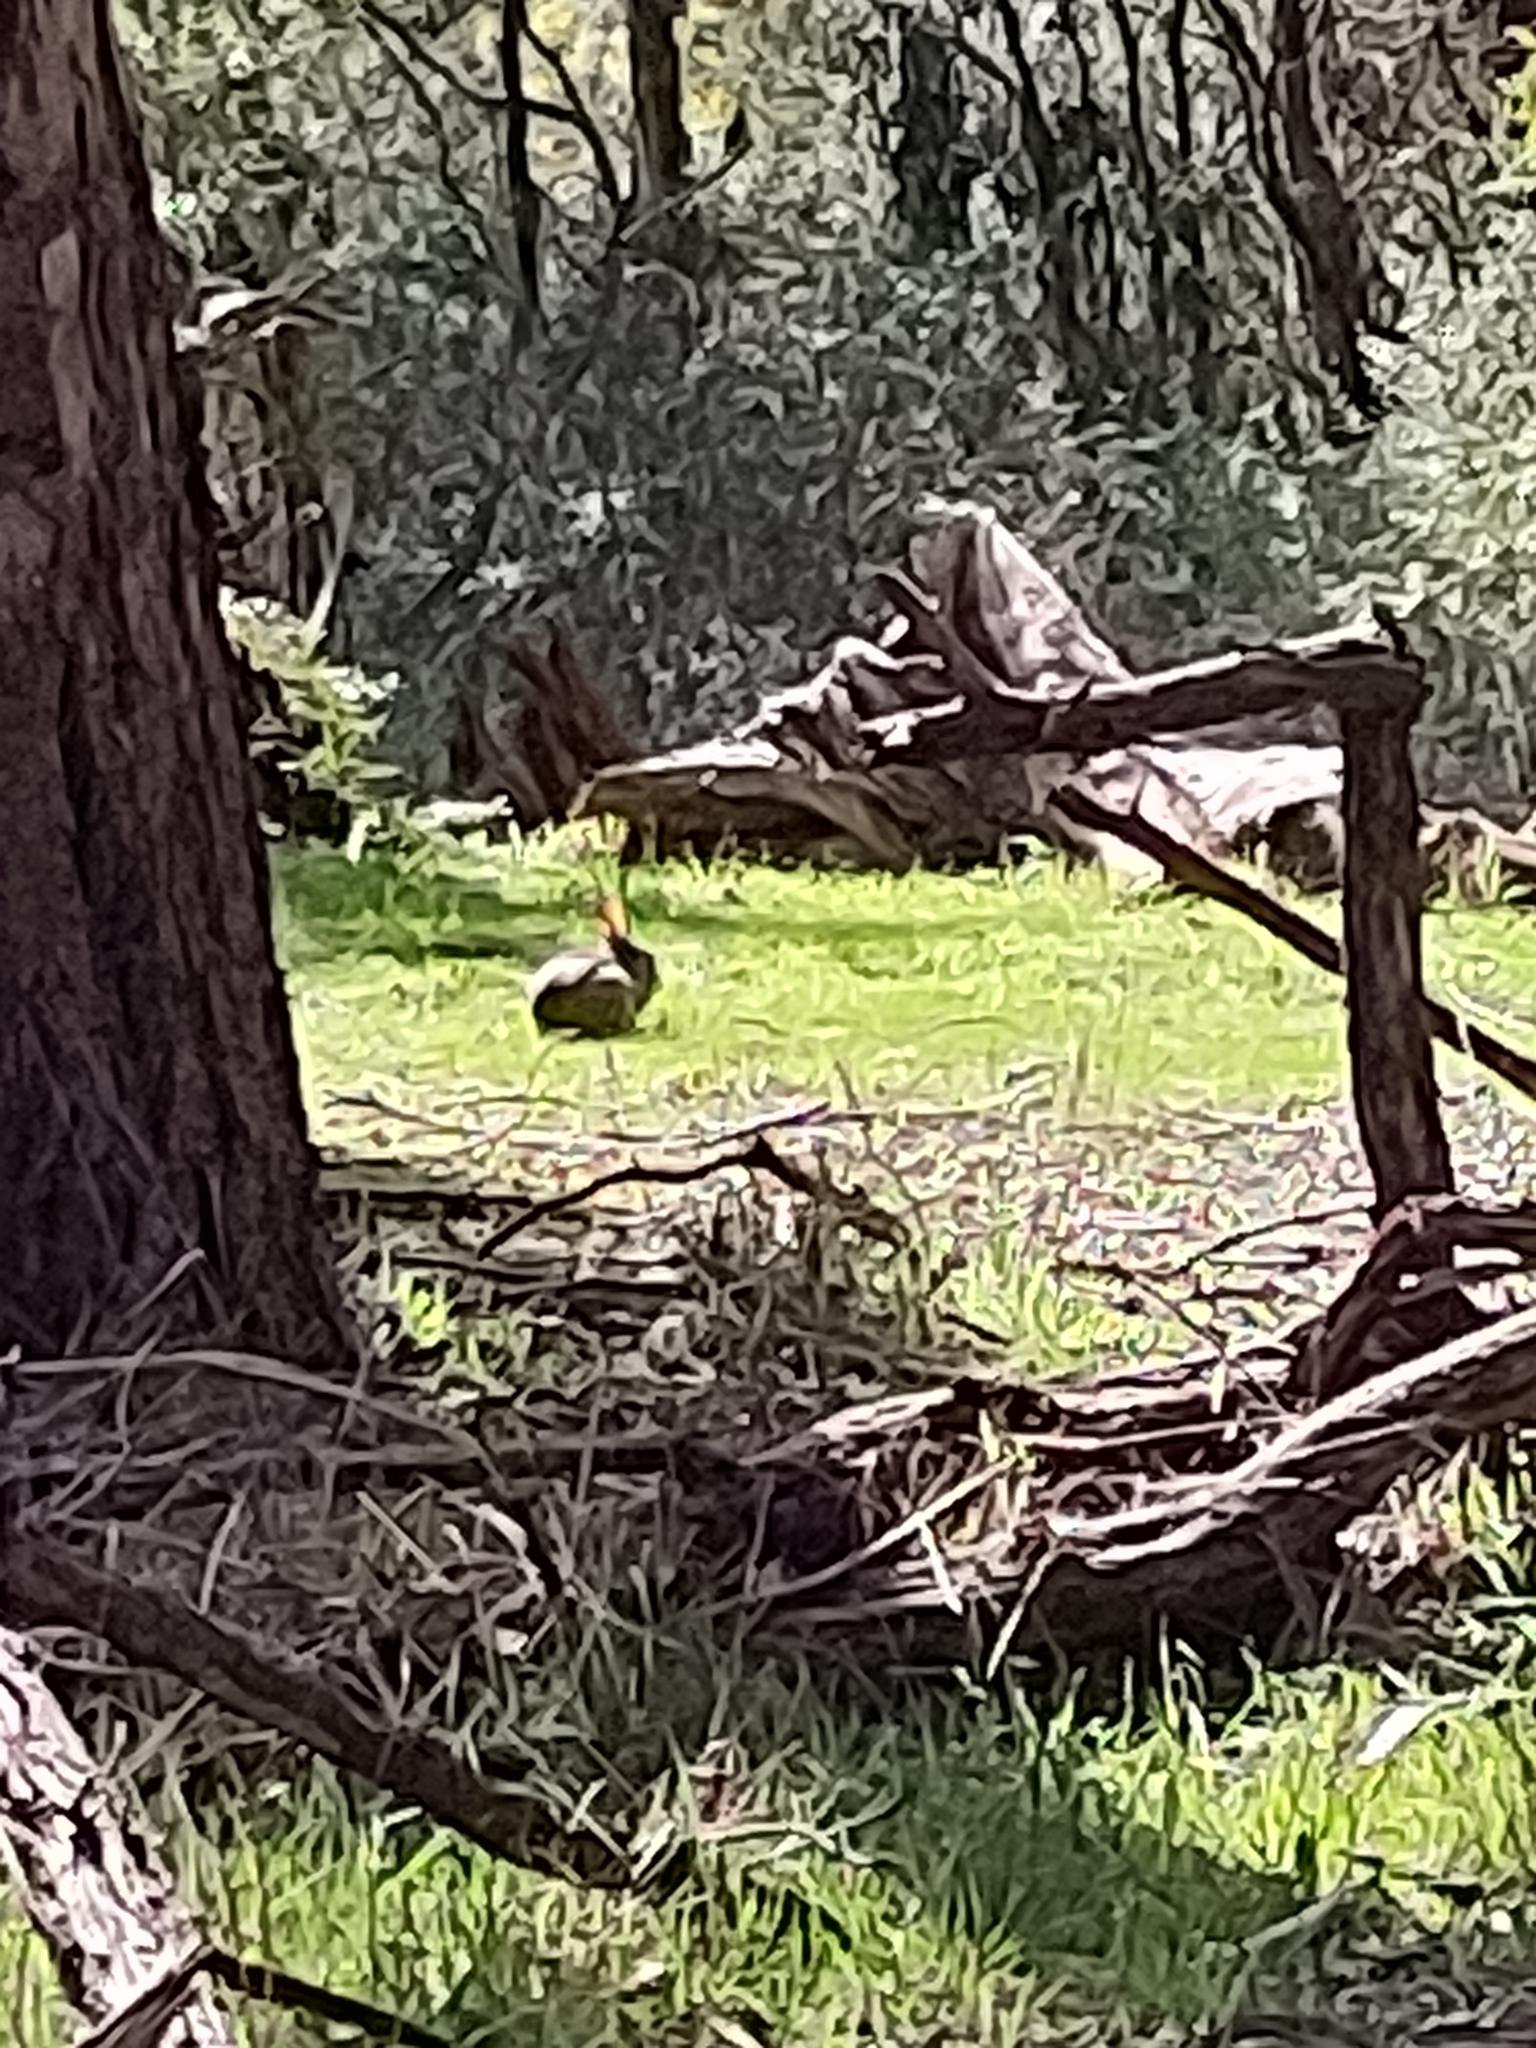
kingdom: Animalia
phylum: Chordata
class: Mammalia
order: Lagomorpha
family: Leporidae
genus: Oryctolagus
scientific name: Oryctolagus cuniculus
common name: European rabbit
